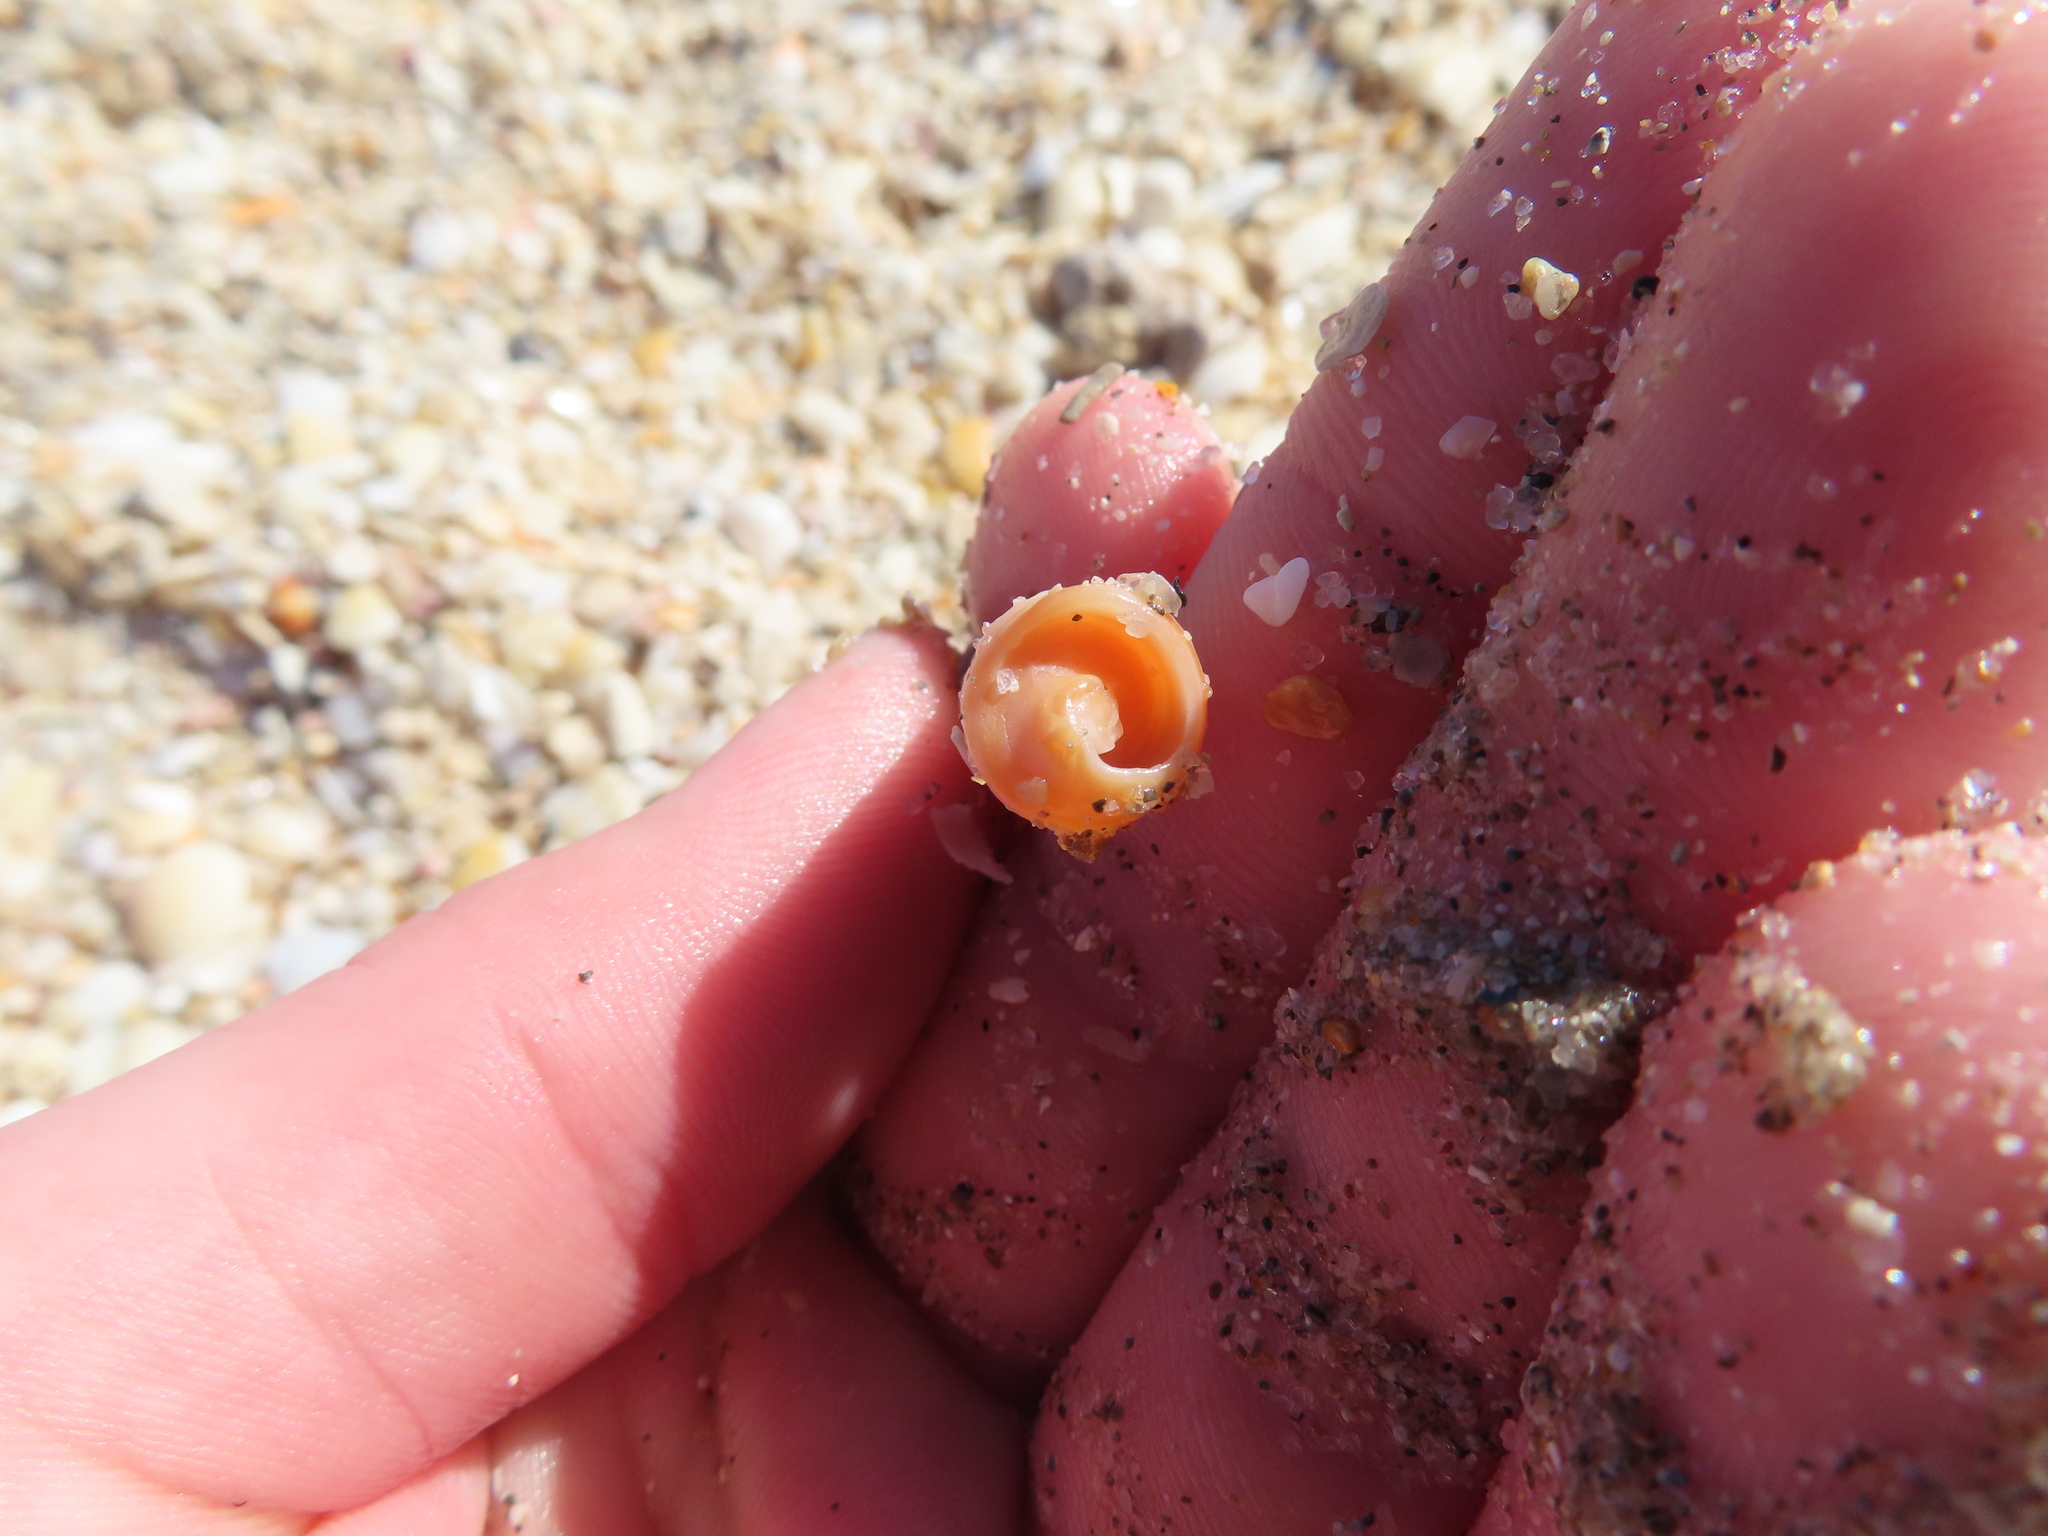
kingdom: Animalia
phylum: Mollusca
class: Gastropoda
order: Neogastropoda
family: Terebridae
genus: Neoterebra
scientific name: Neoterebra dislocata
